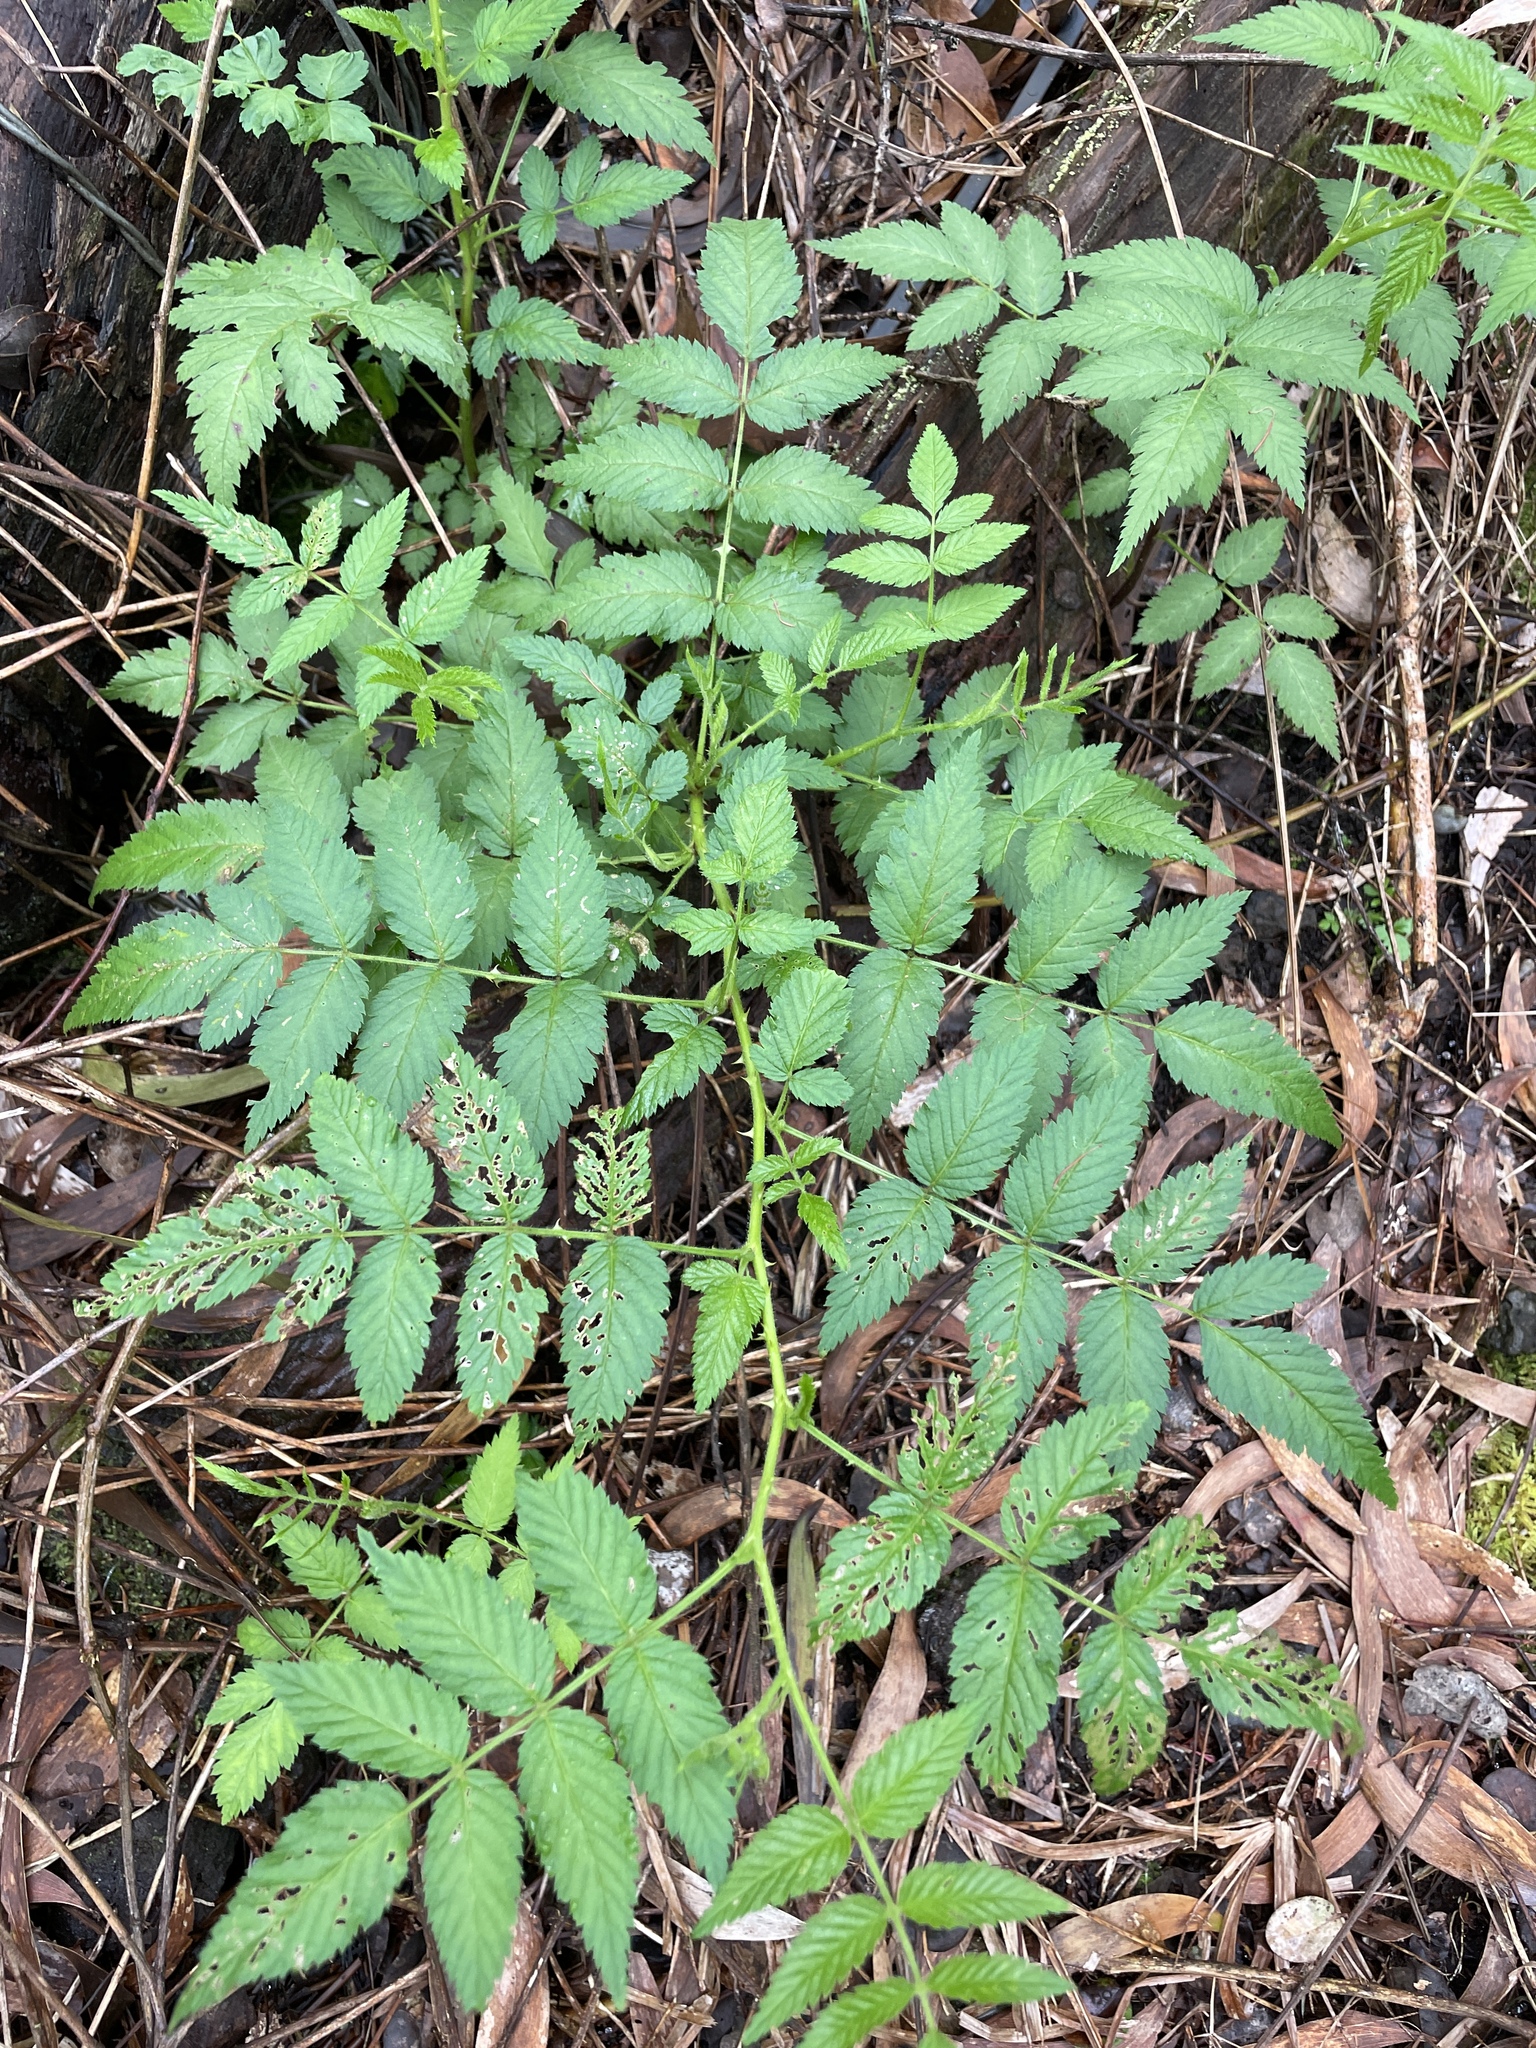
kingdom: Plantae
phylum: Tracheophyta
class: Magnoliopsida
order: Rosales
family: Rosaceae
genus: Rubus
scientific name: Rubus rosifolius
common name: Roseleaf raspberry
